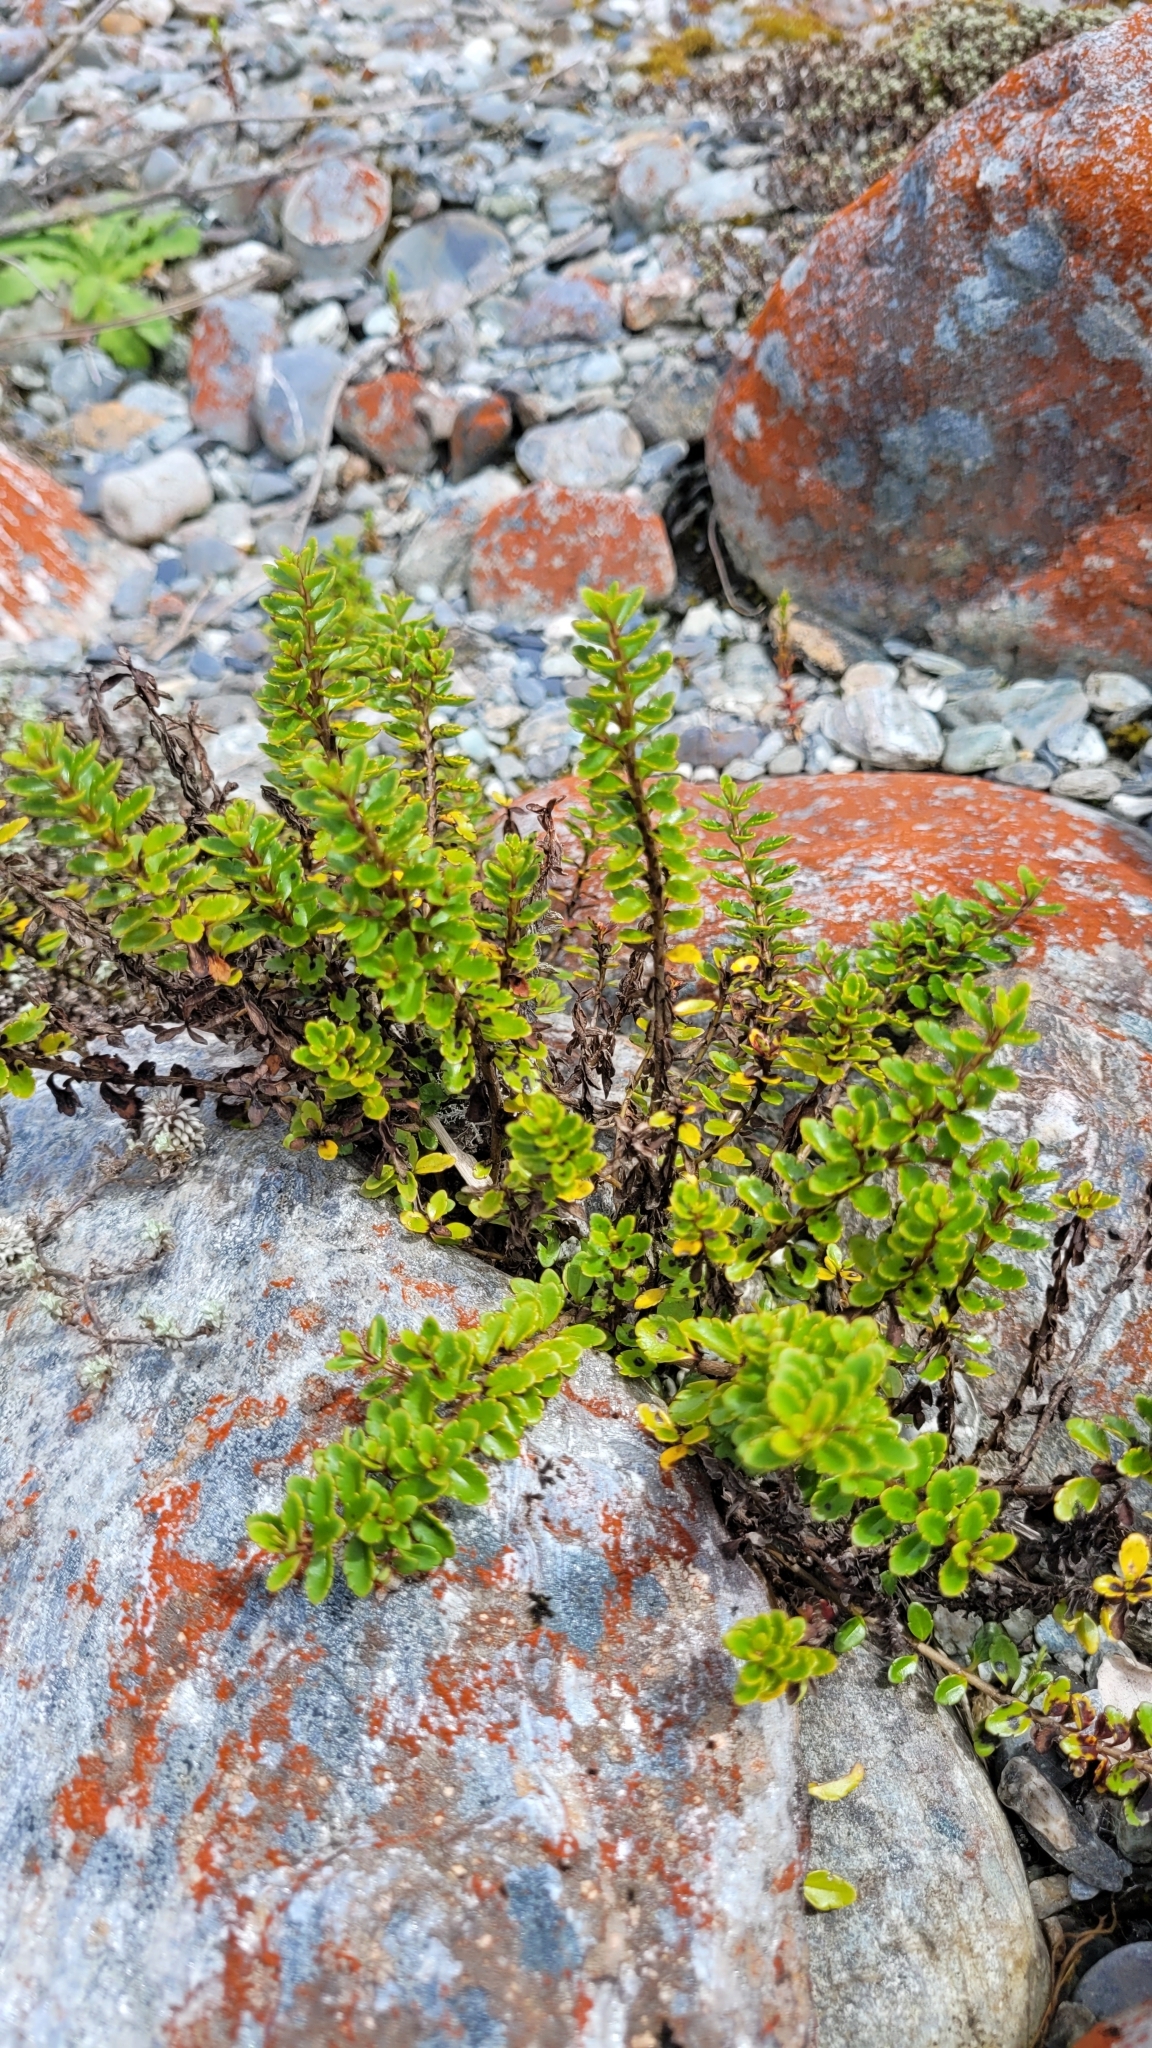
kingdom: Plantae
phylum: Tracheophyta
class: Magnoliopsida
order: Lamiales
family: Plantaginaceae
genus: Veronica
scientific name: Veronica lyallii
